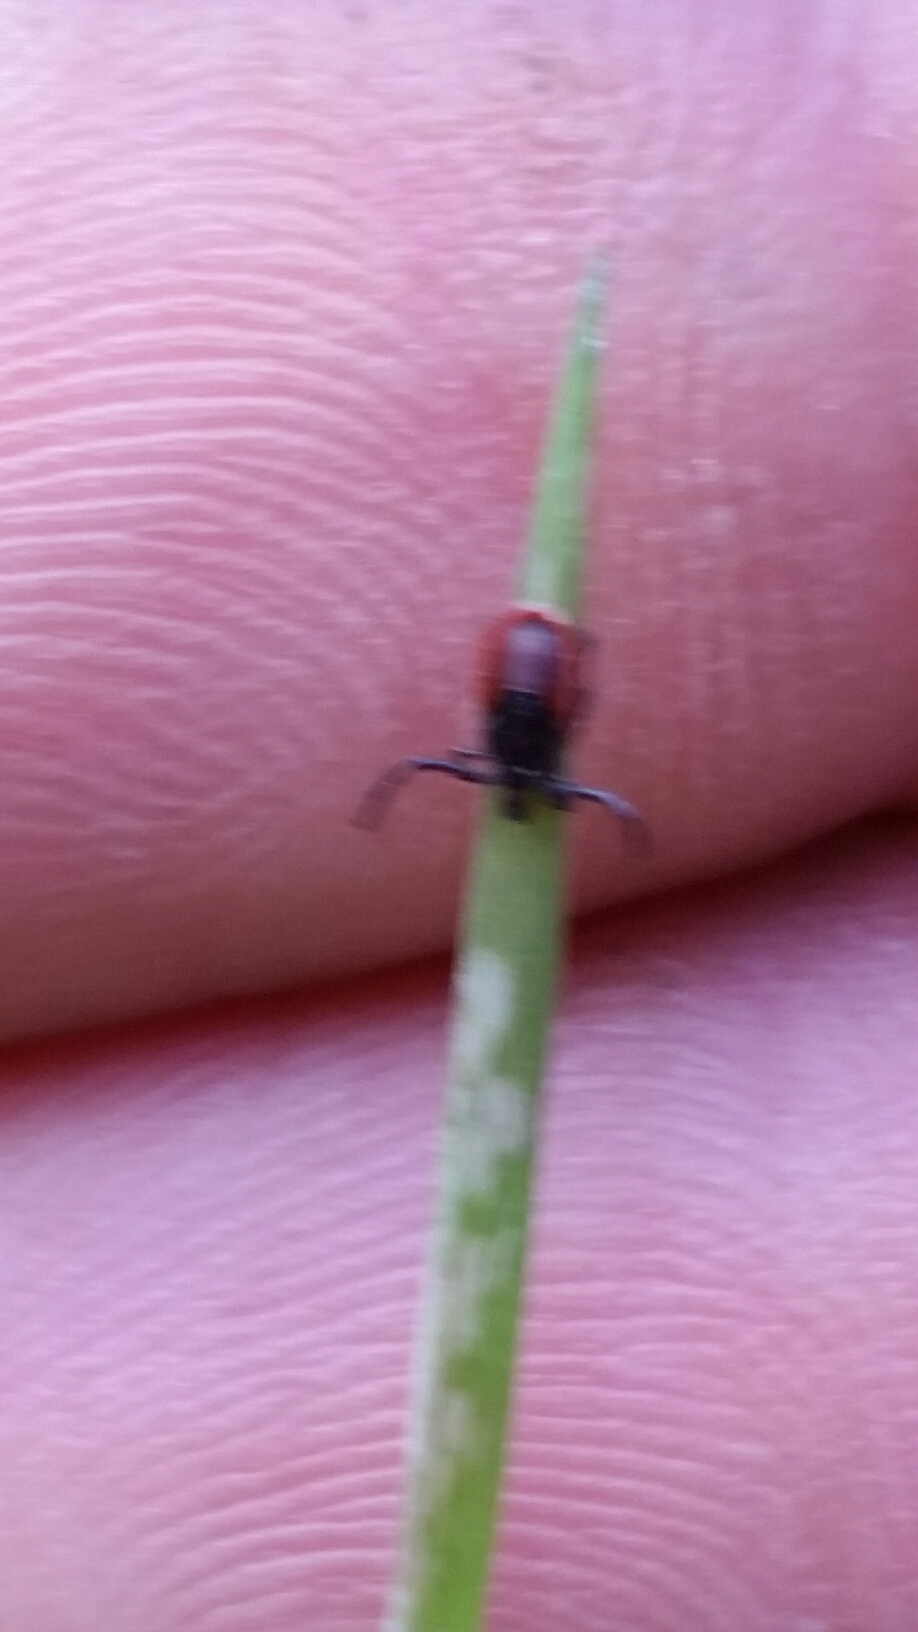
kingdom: Animalia
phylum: Arthropoda
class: Arachnida
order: Ixodida
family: Ixodidae
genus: Ixodes
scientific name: Ixodes pacificus
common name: California black-legged tick
